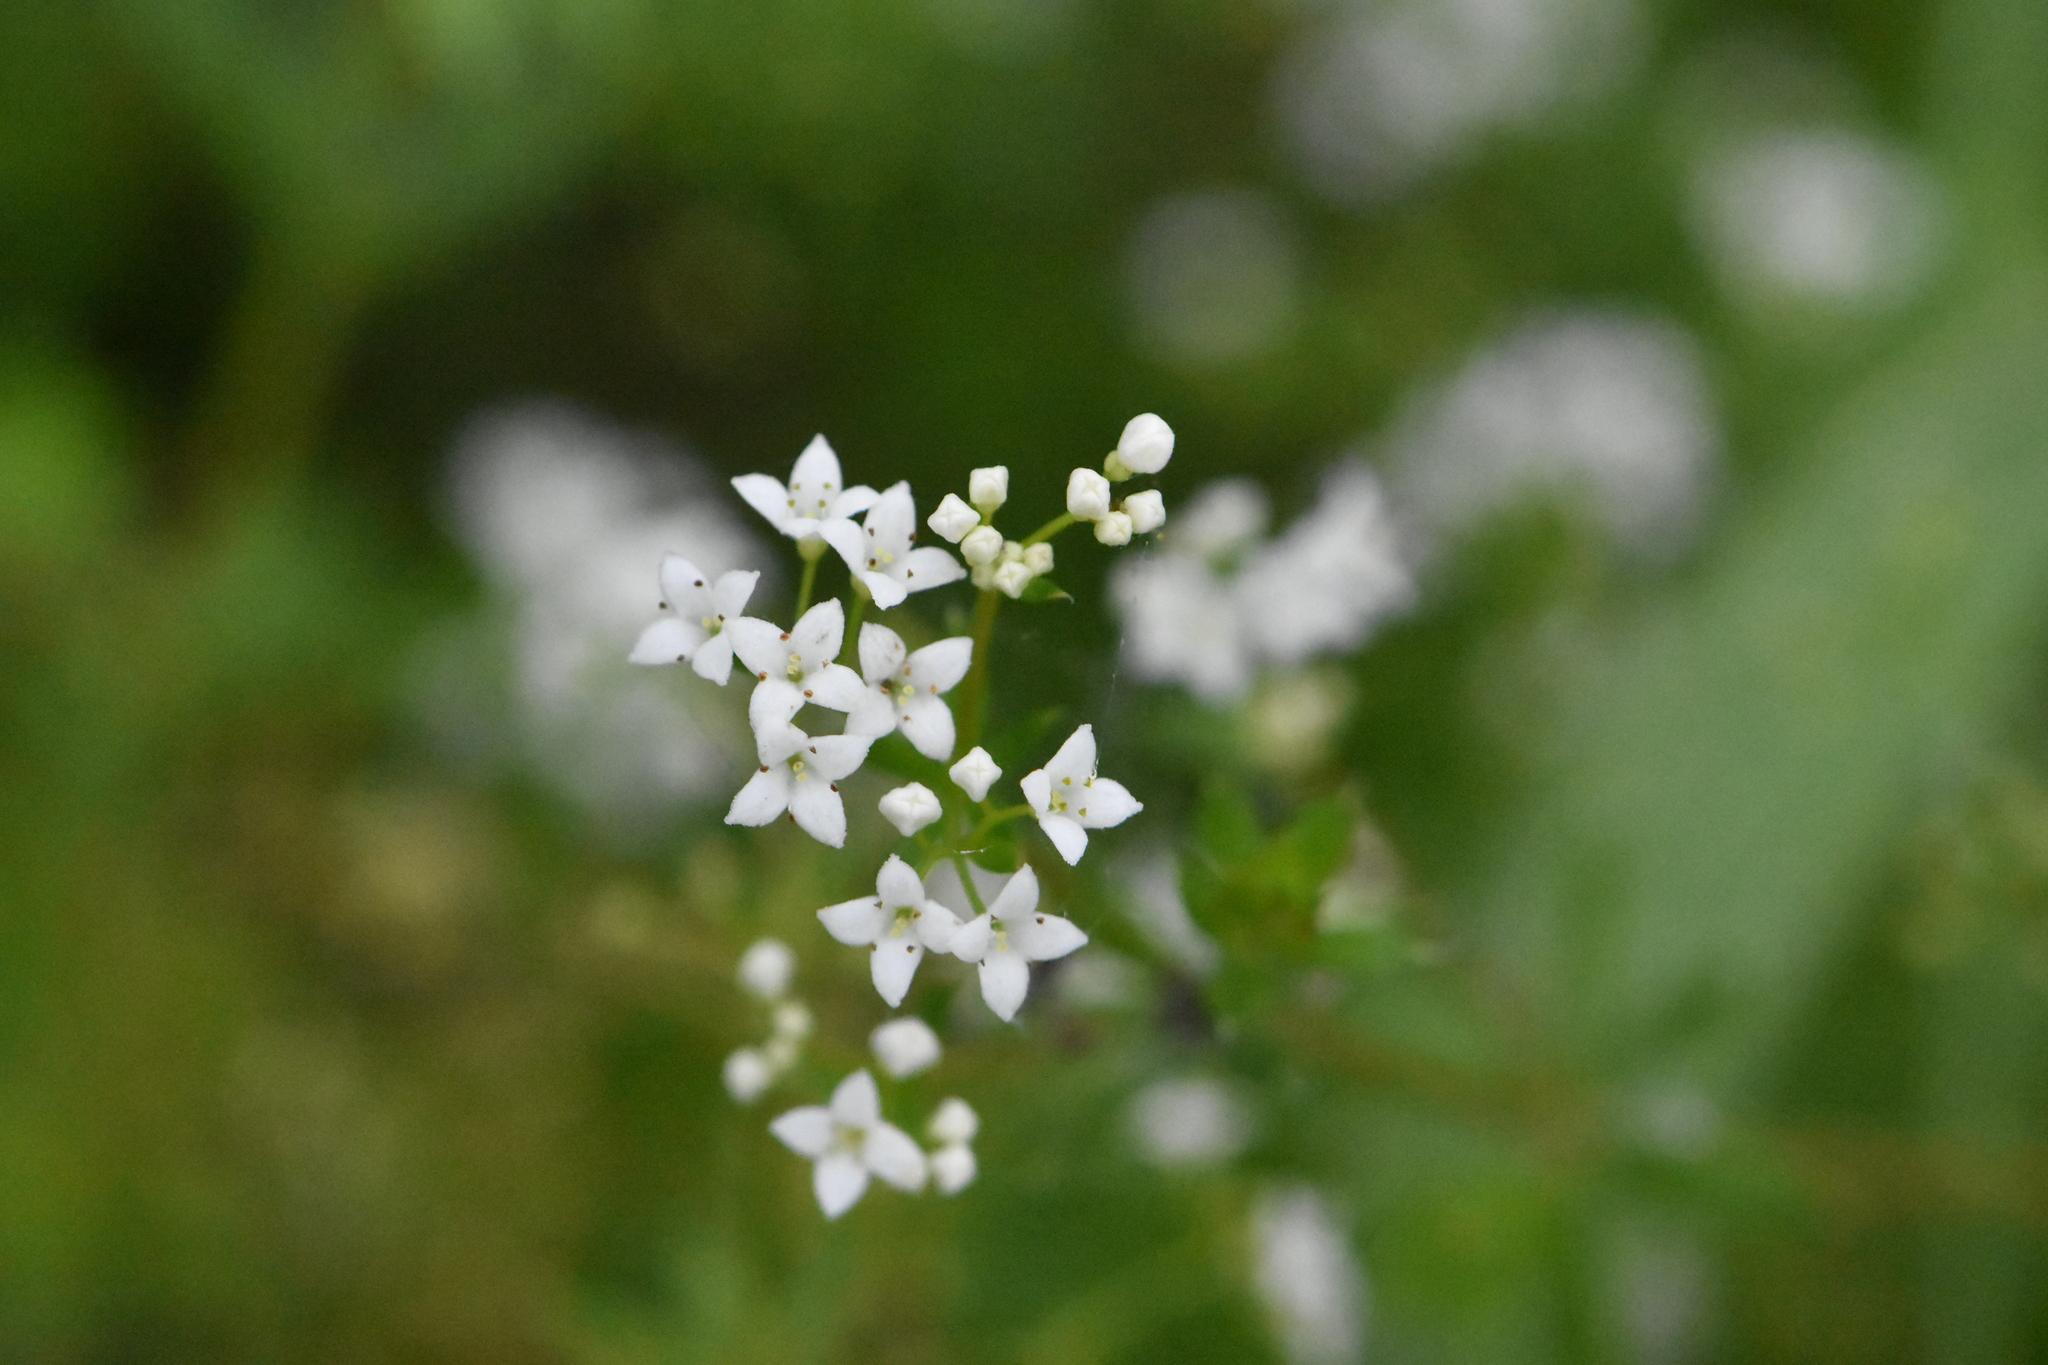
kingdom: Plantae
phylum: Tracheophyta
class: Magnoliopsida
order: Gentianales
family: Rubiaceae
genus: Galium
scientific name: Galium rivale
